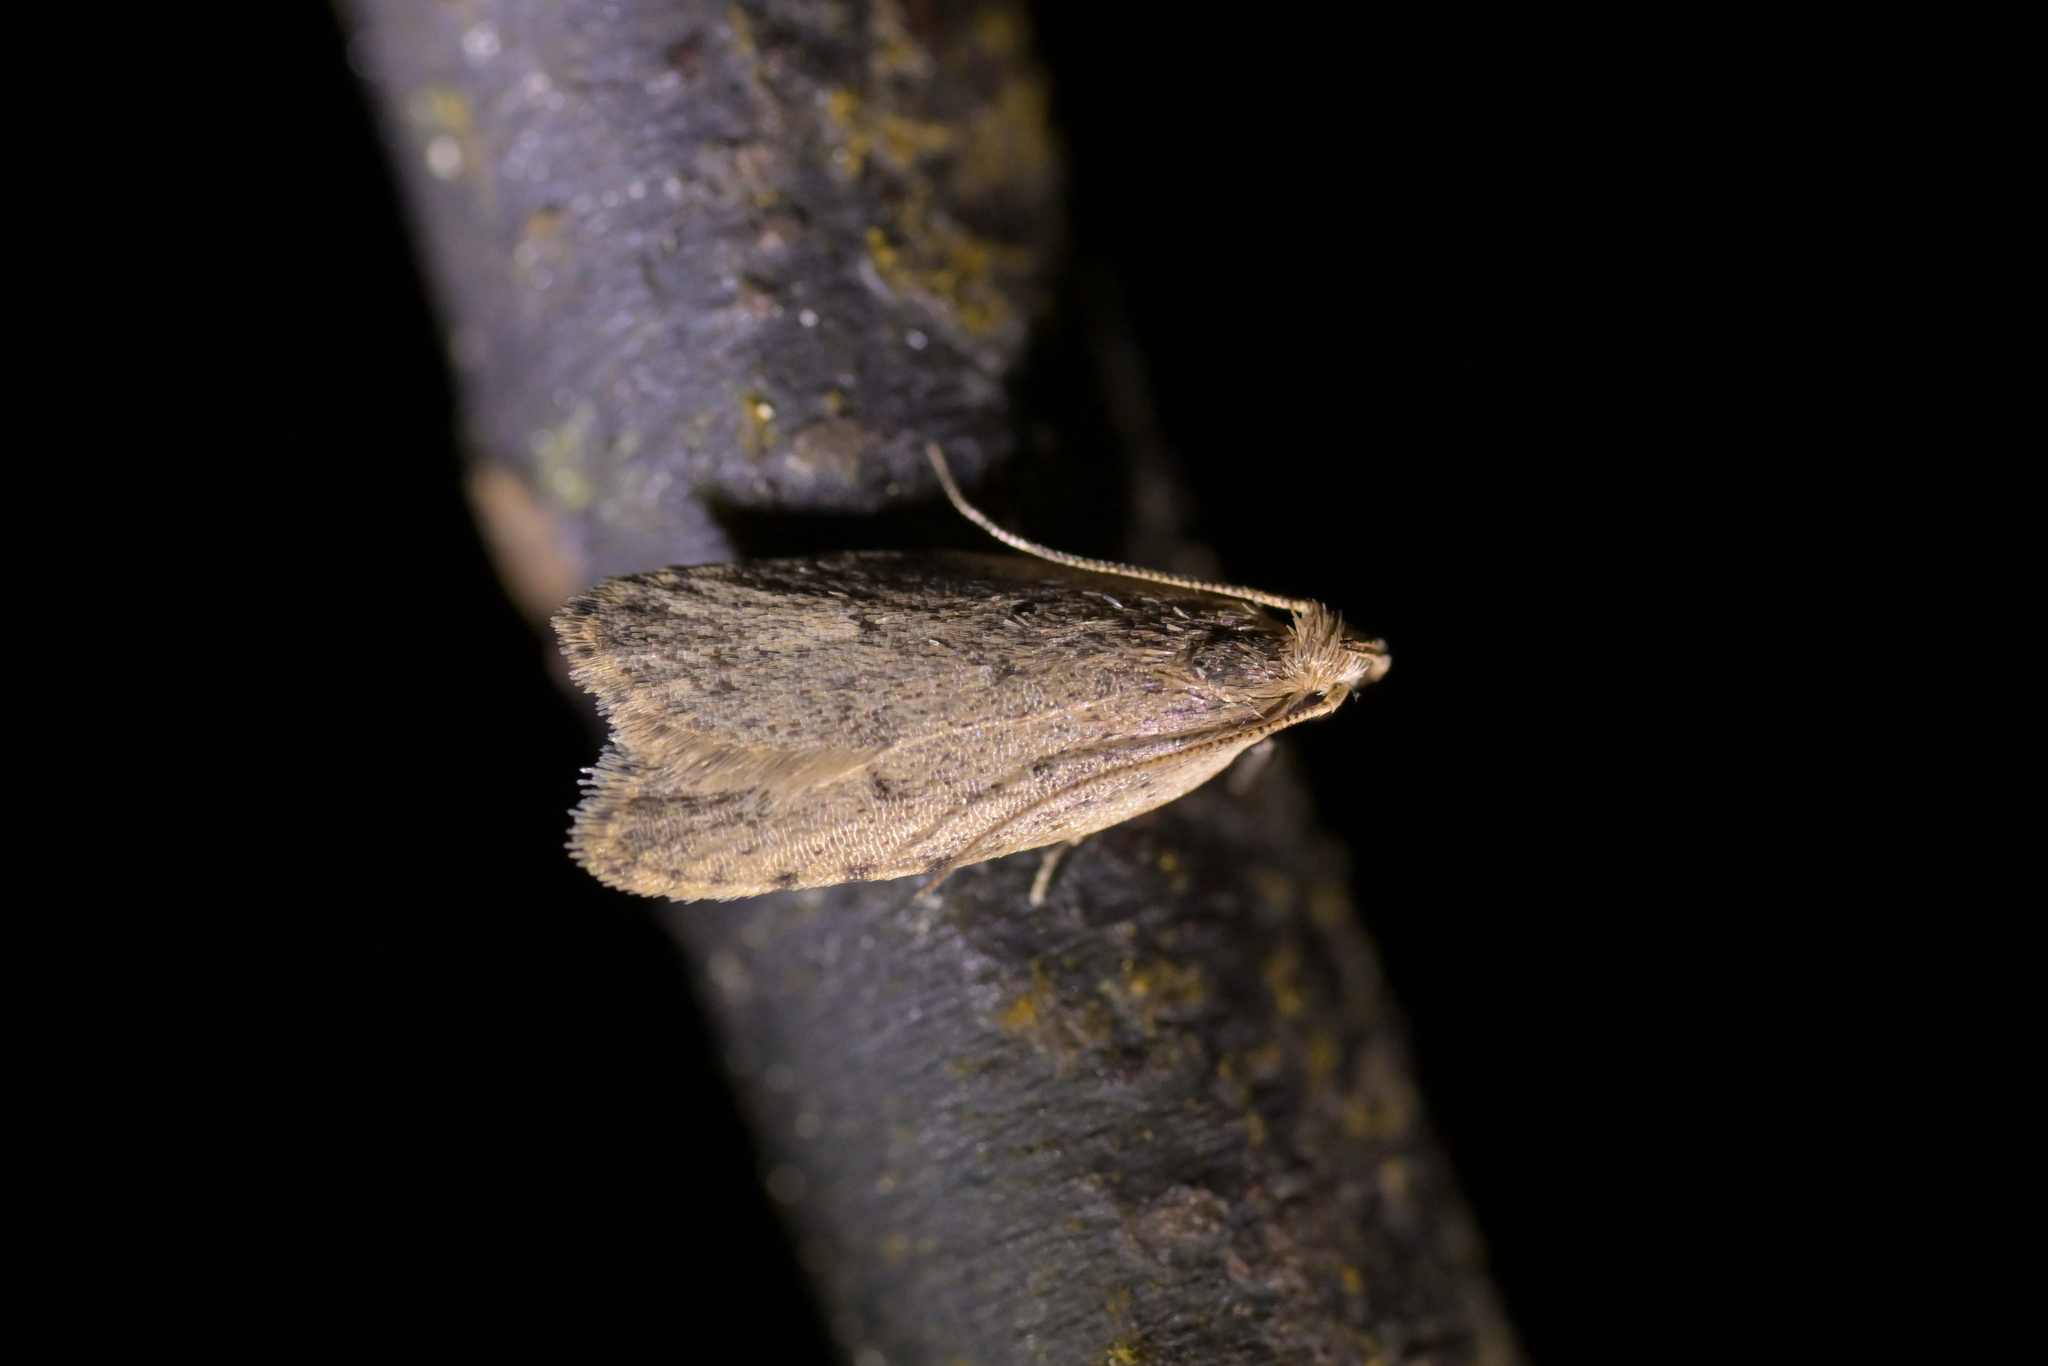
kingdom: Animalia
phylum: Arthropoda
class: Insecta
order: Lepidoptera
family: Oecophoridae
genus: Gymnobathra
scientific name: Gymnobathra calliploca
